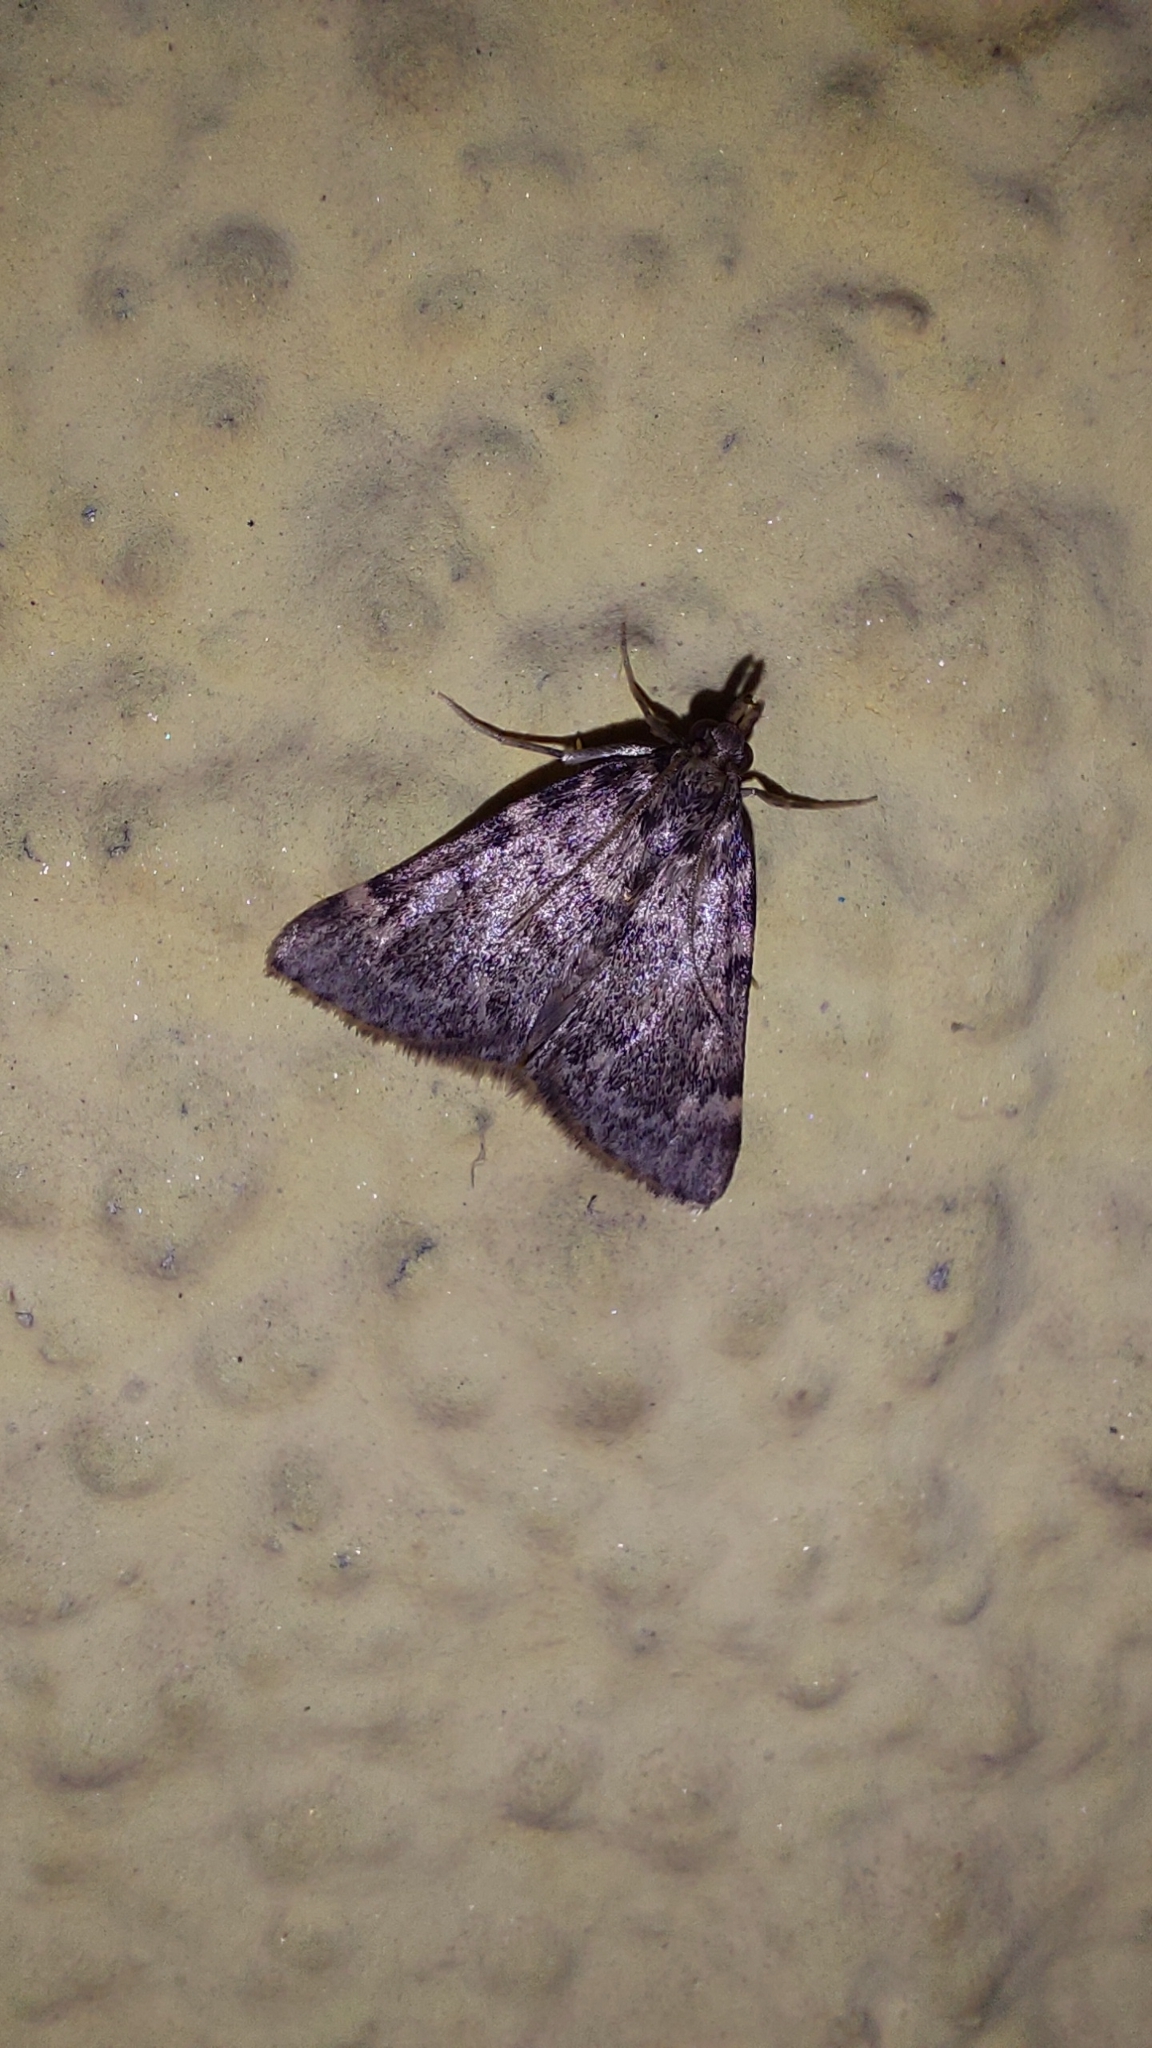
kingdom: Animalia
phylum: Arthropoda
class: Insecta
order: Lepidoptera
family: Pyralidae
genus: Aglossa
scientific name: Aglossa pinguinalis
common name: Large tabby
